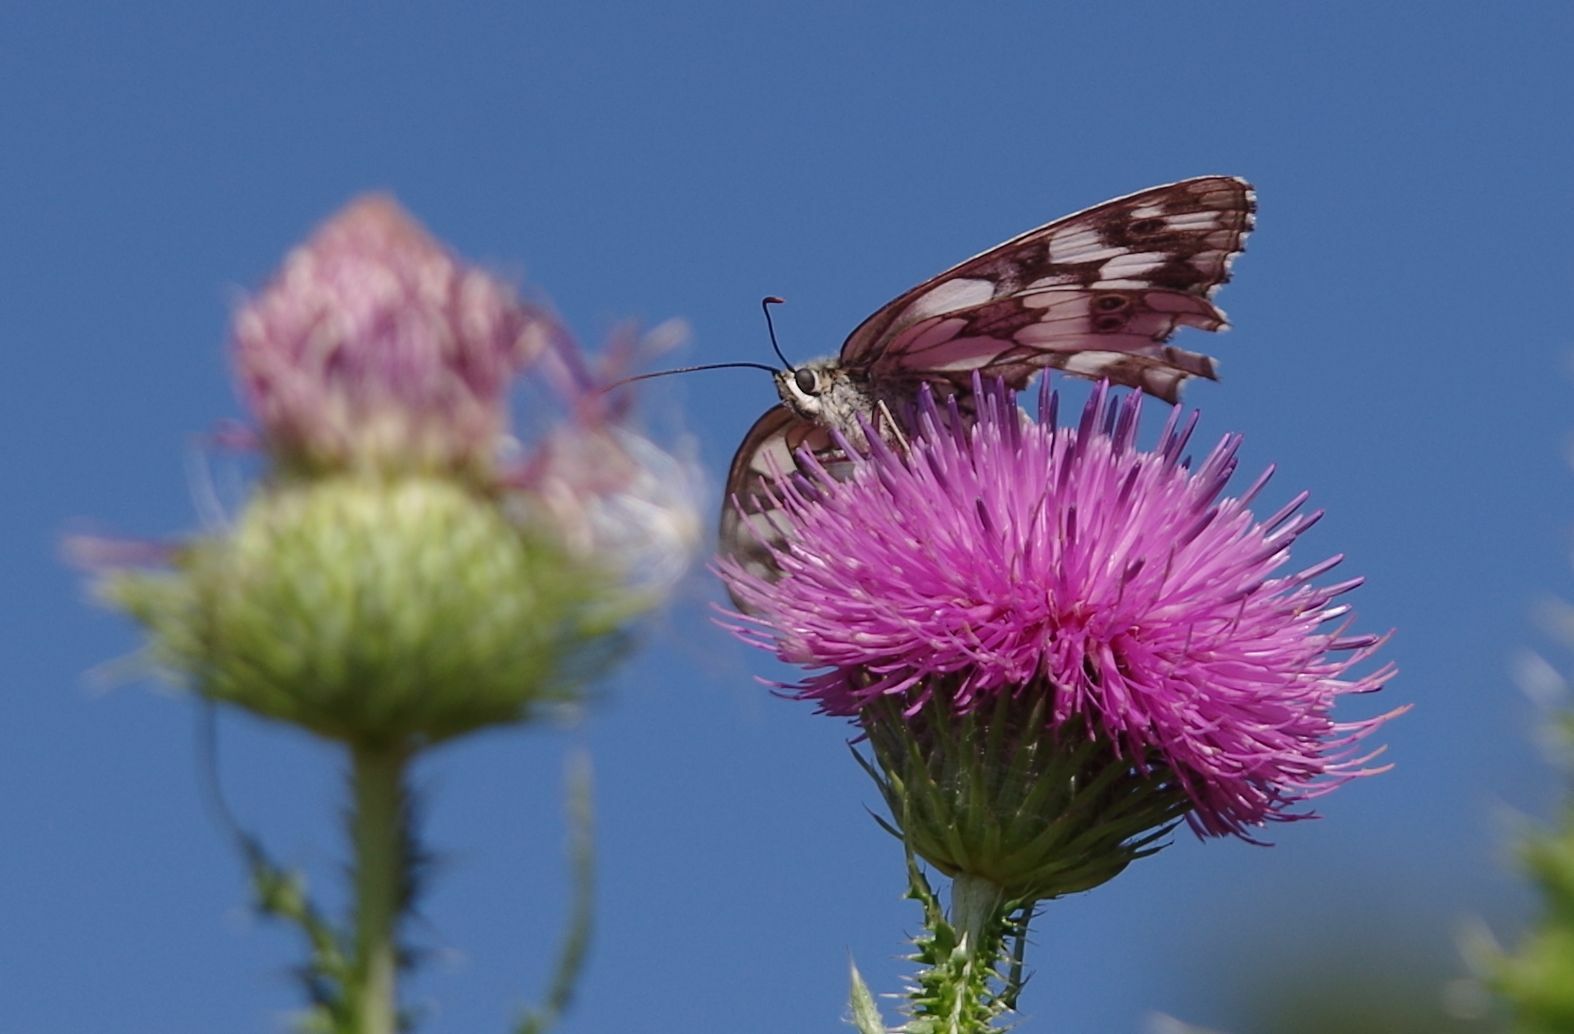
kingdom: Animalia
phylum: Arthropoda
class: Insecta
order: Lepidoptera
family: Nymphalidae
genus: Melanargia
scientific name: Melanargia galathea
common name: Marbled white
